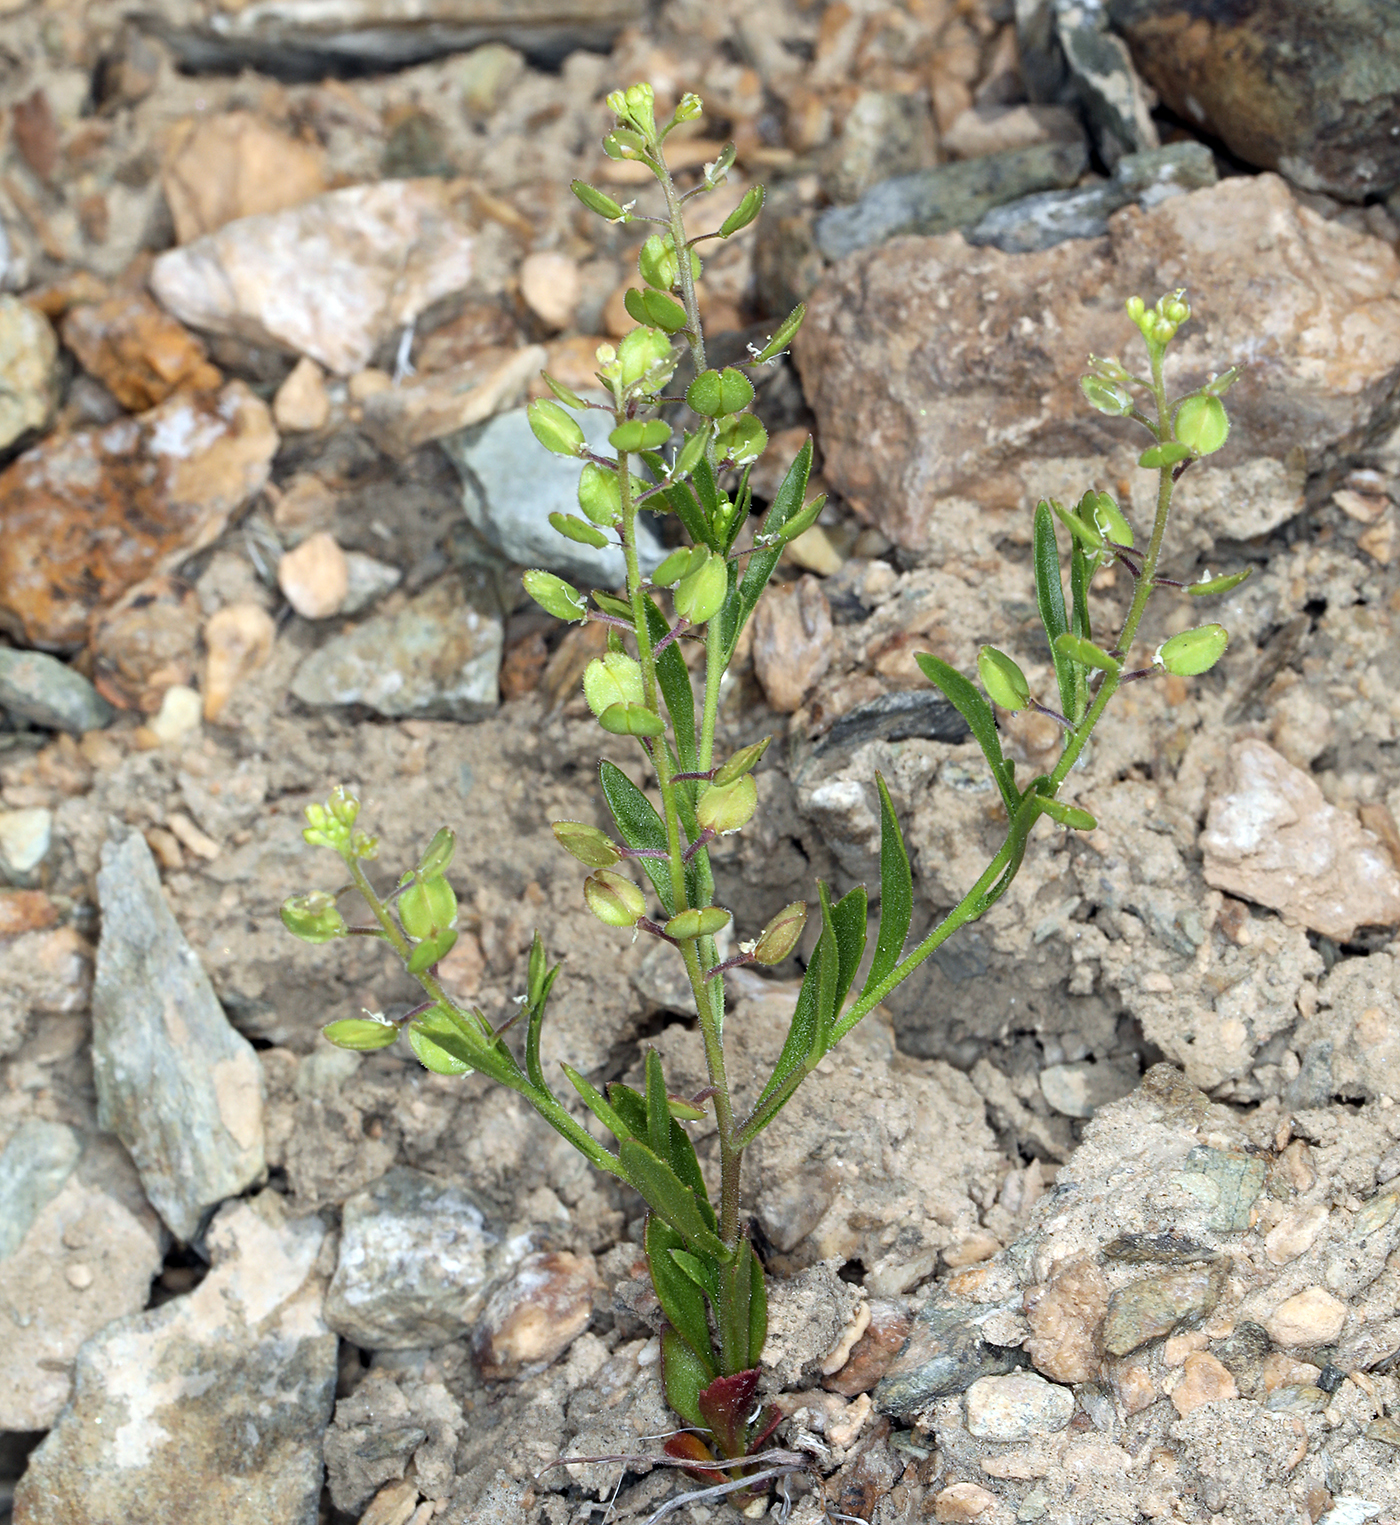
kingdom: Plantae
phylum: Tracheophyta
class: Magnoliopsida
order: Brassicales
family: Brassicaceae
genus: Lepidium
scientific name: Lepidium lasiocarpum
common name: Hairy-pod pepperwort
